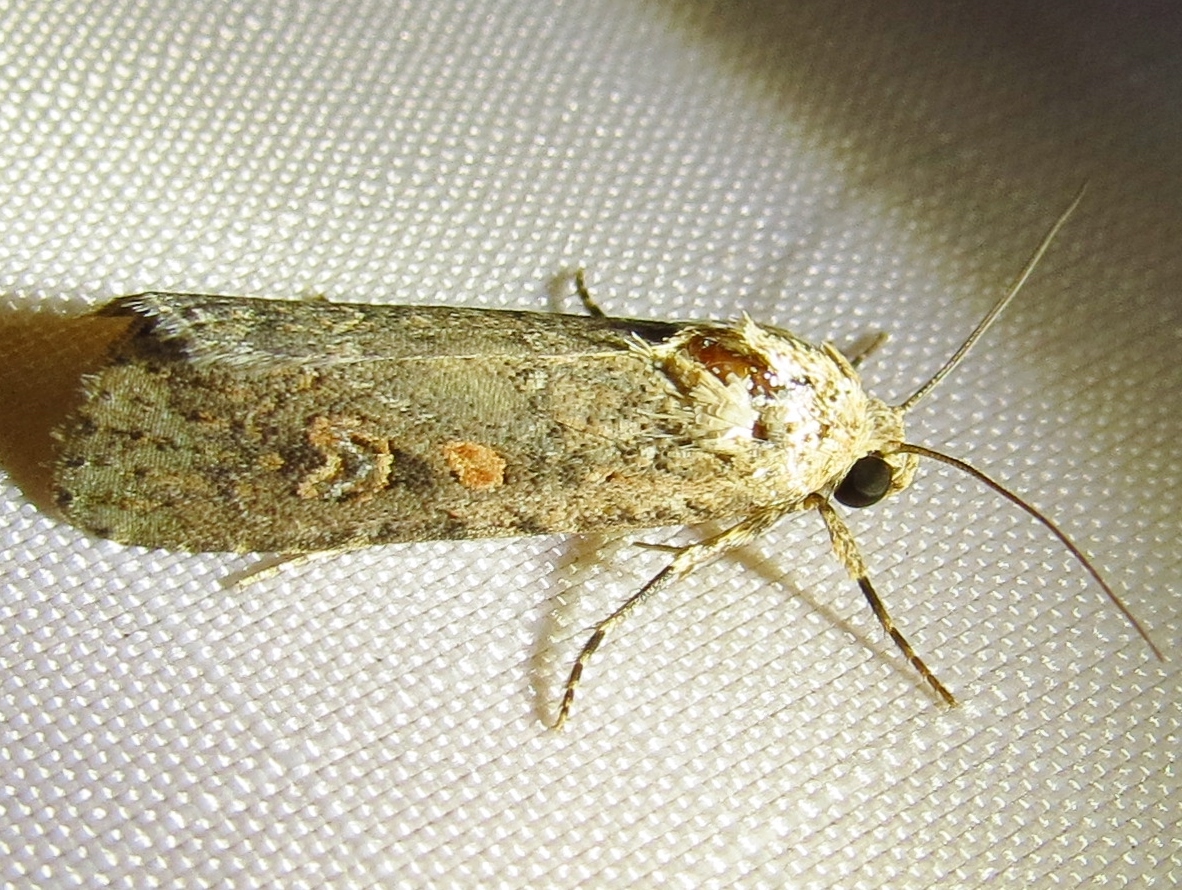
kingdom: Animalia
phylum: Arthropoda
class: Insecta
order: Lepidoptera
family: Noctuidae
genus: Spodoptera
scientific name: Spodoptera exigua
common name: Beet armyworm
